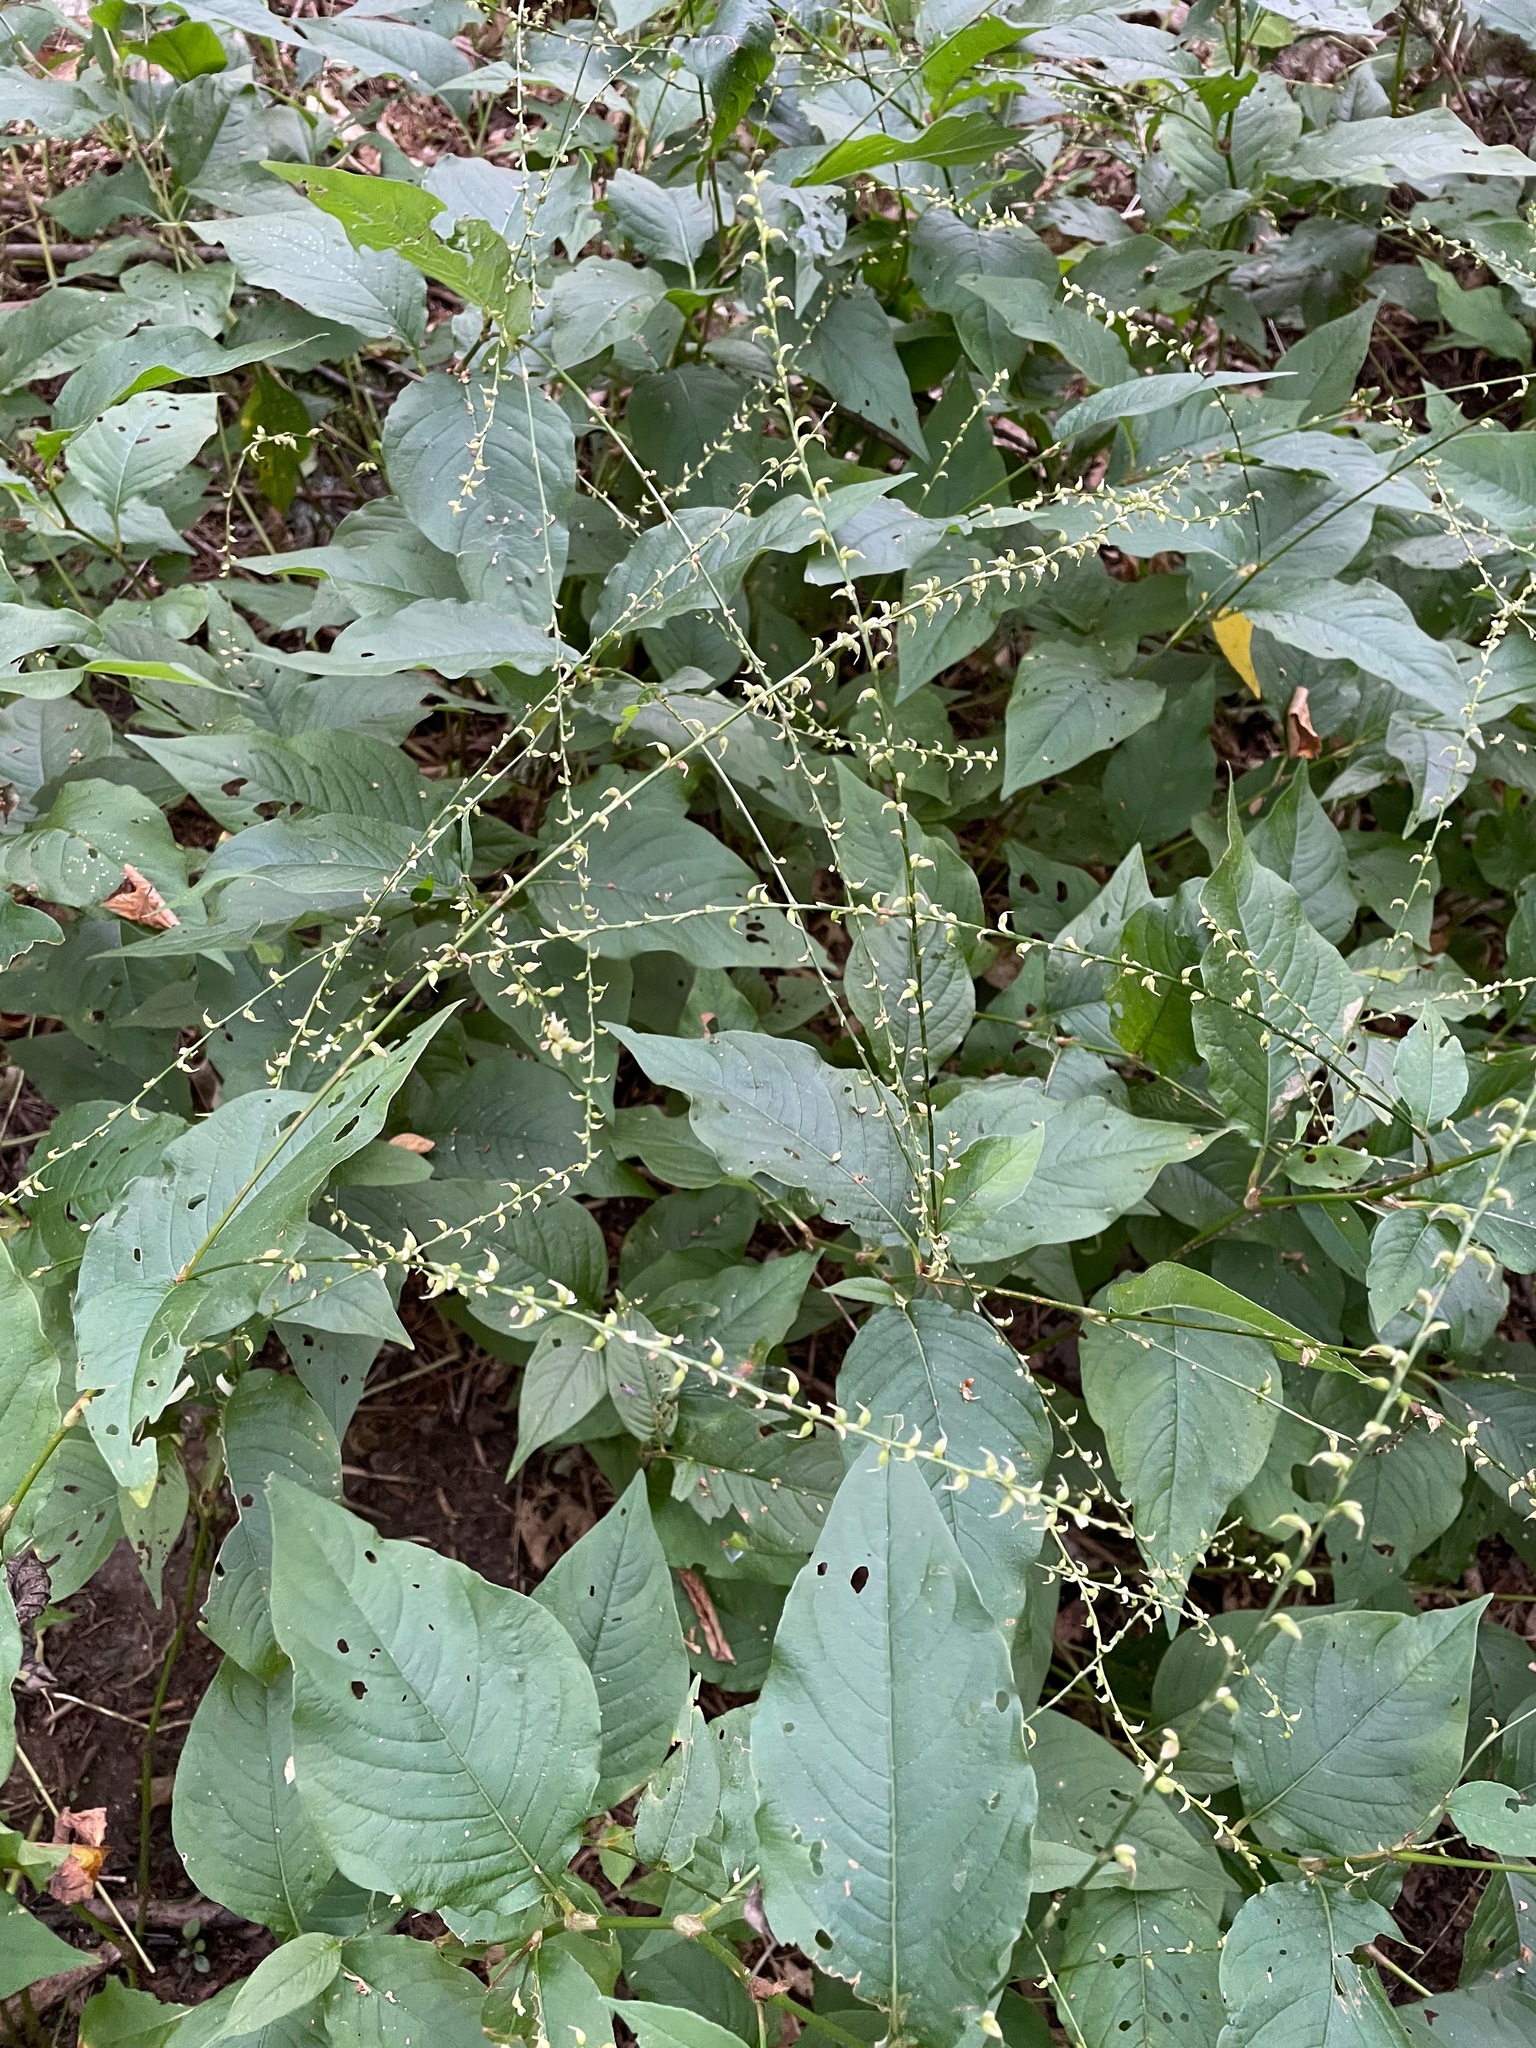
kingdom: Plantae
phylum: Tracheophyta
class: Magnoliopsida
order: Caryophyllales
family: Polygonaceae
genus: Persicaria
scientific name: Persicaria virginiana
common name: Jumpseed
